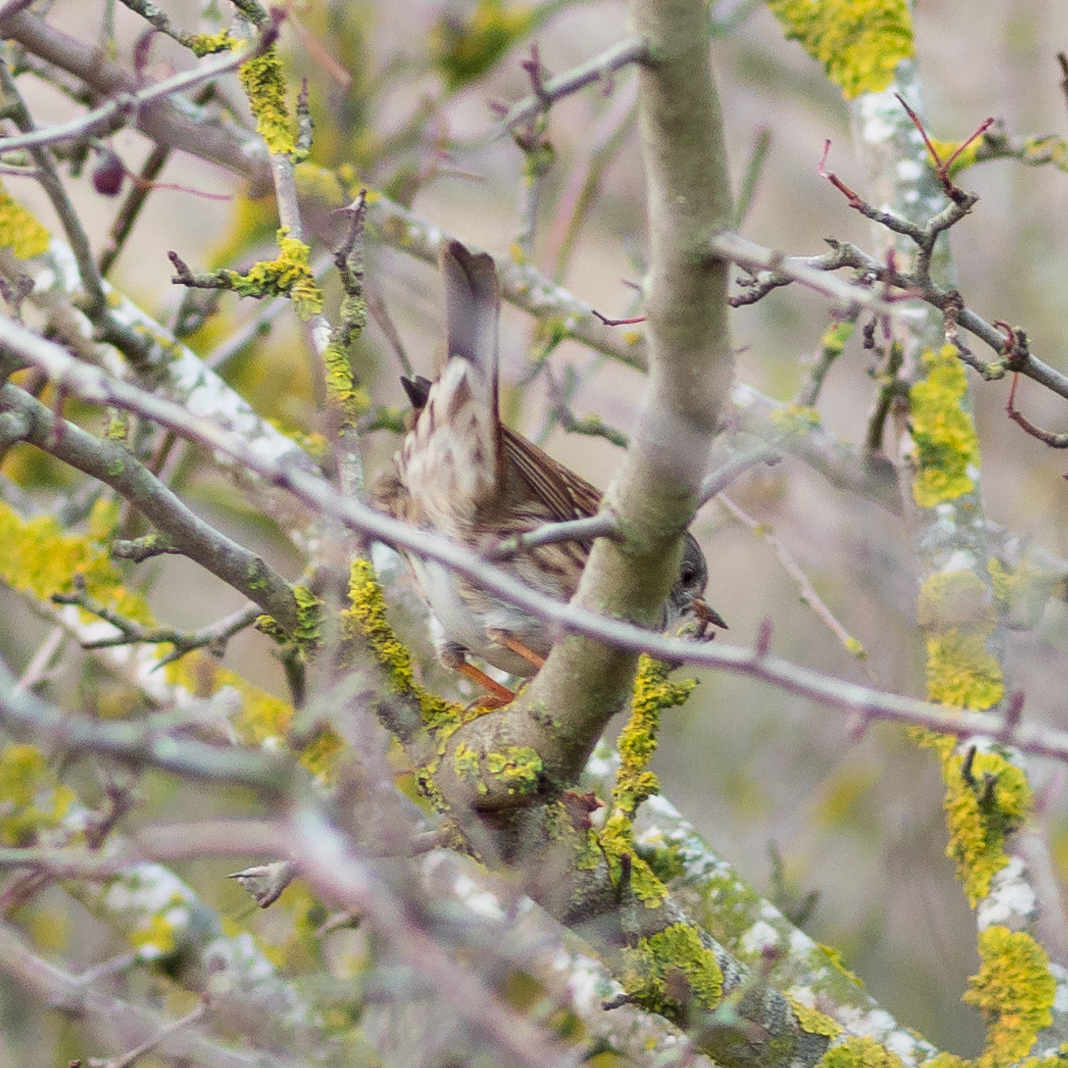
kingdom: Animalia
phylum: Chordata
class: Aves
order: Passeriformes
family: Prunellidae
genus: Prunella
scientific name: Prunella modularis
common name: Dunnock
